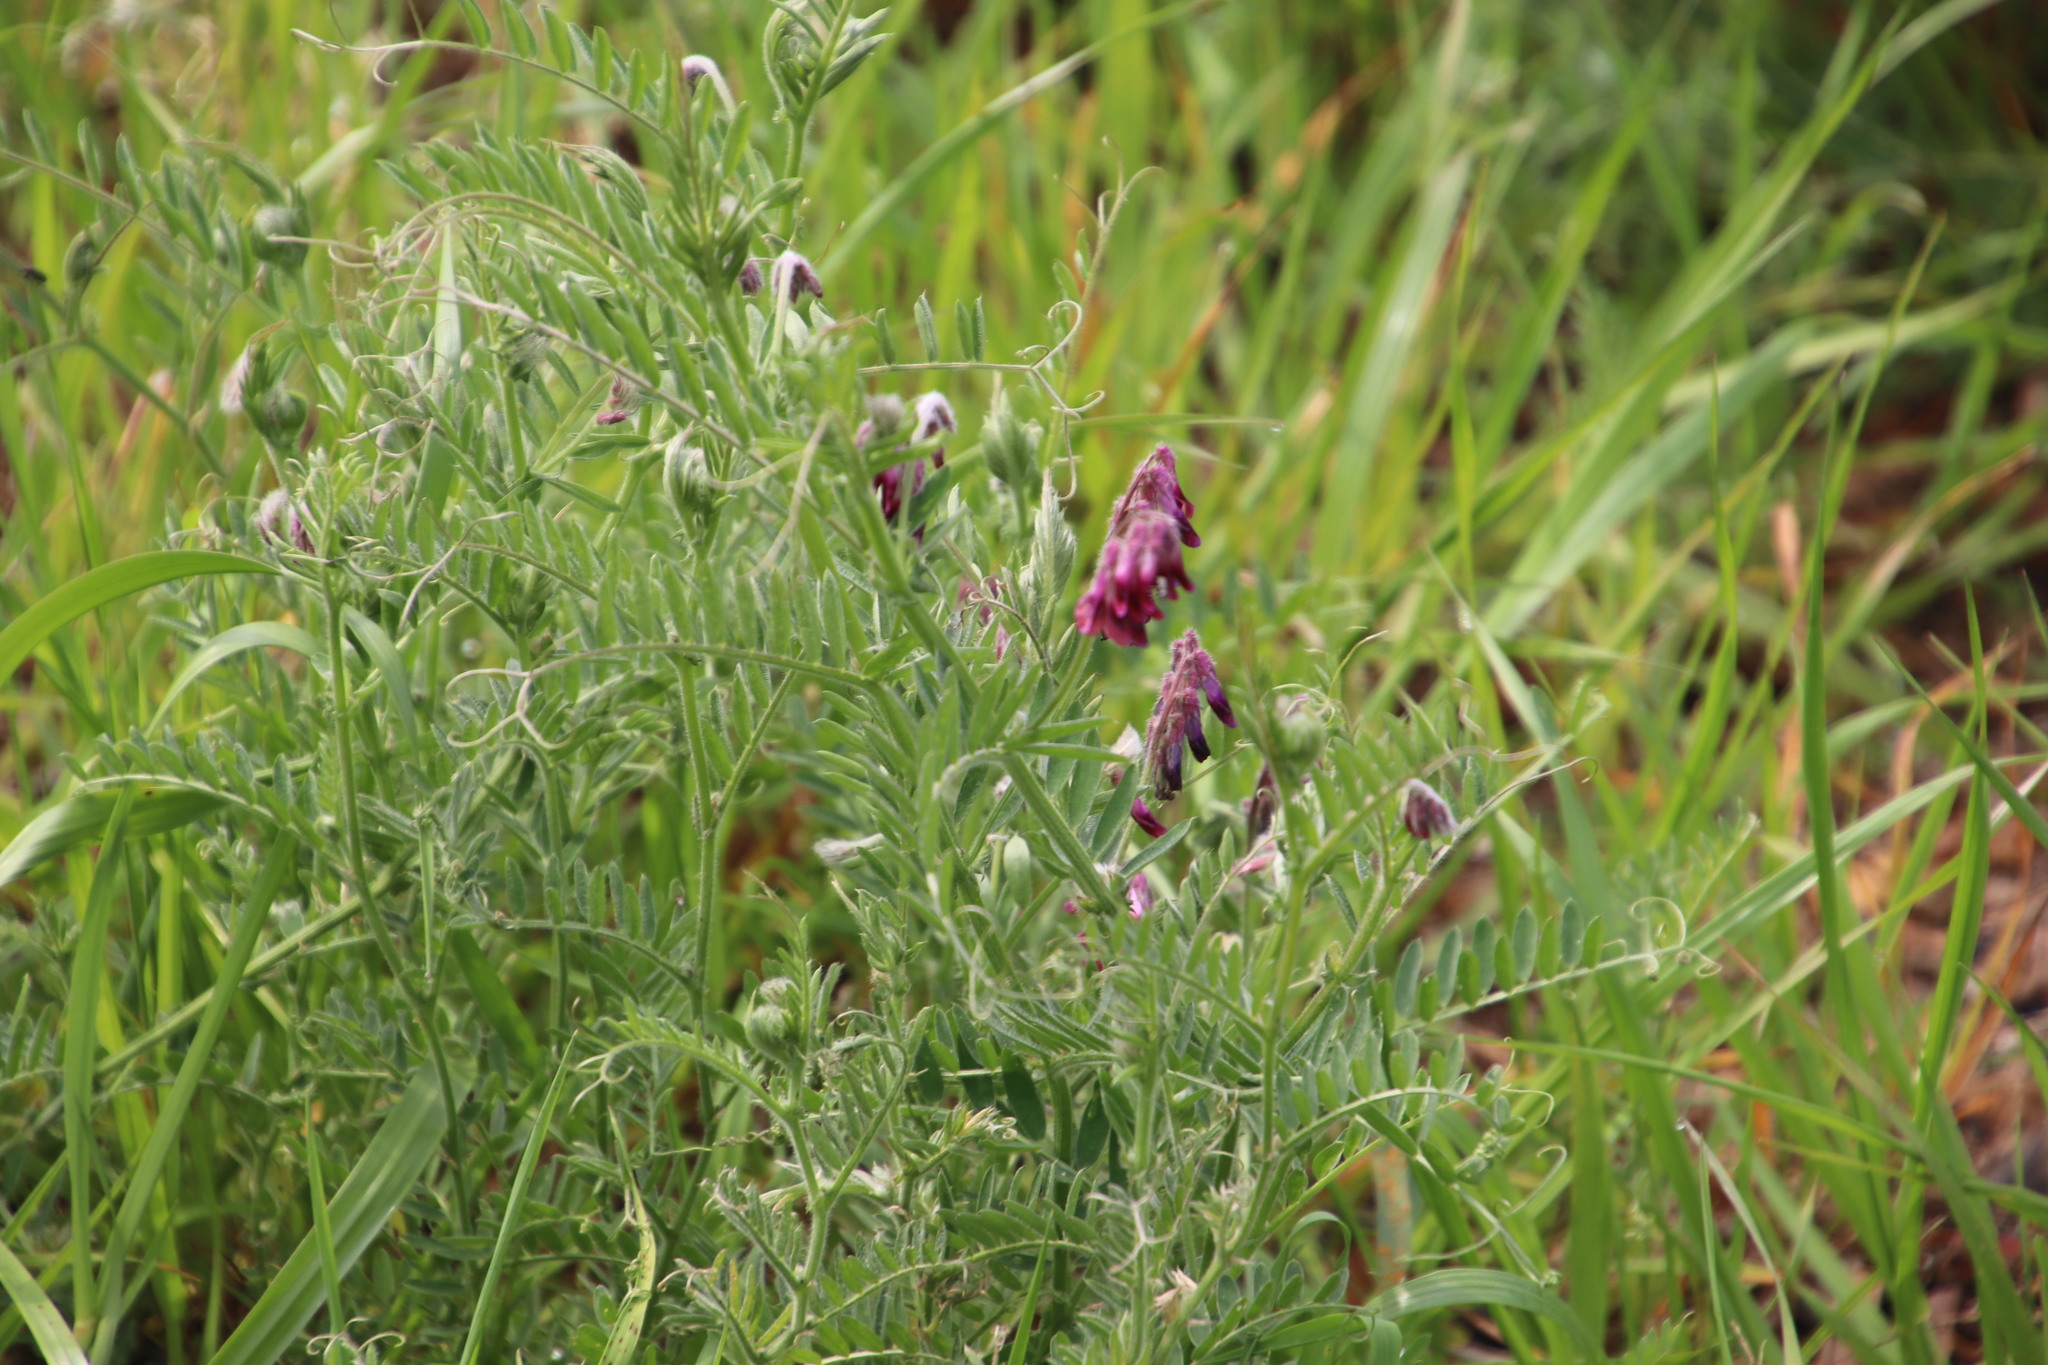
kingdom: Plantae
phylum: Tracheophyta
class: Magnoliopsida
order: Fabales
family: Fabaceae
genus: Vicia
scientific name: Vicia benghalensis
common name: Purple vetch
